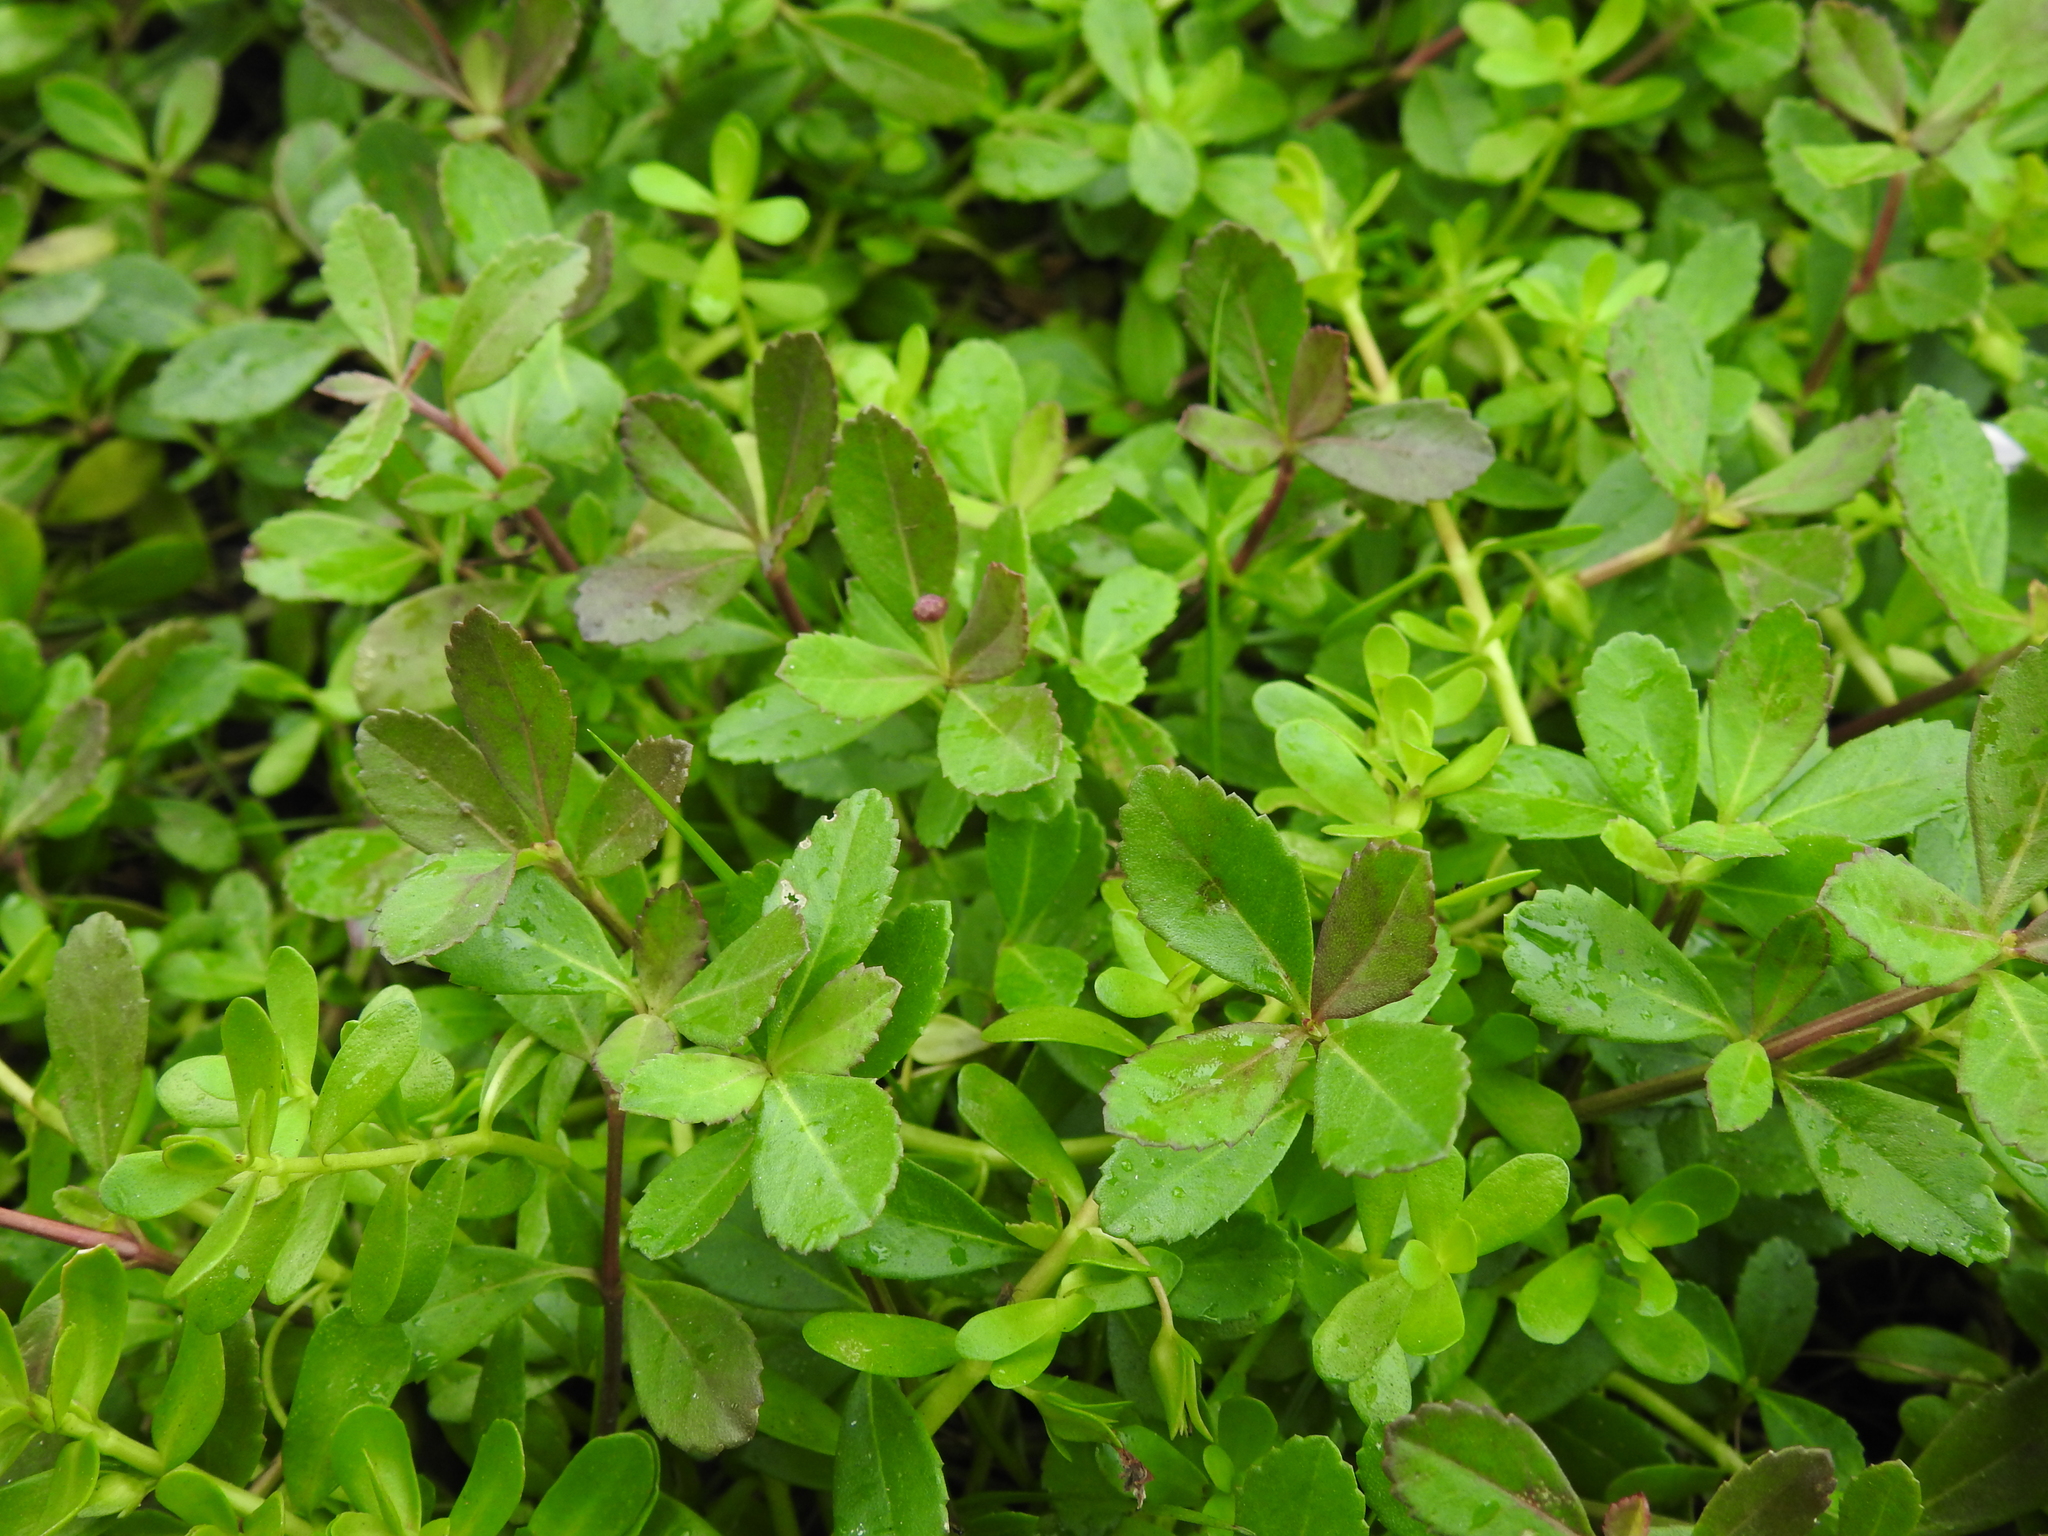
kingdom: Plantae
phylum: Tracheophyta
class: Magnoliopsida
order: Lamiales
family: Verbenaceae
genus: Phyla
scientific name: Phyla nodiflora
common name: Frogfruit
